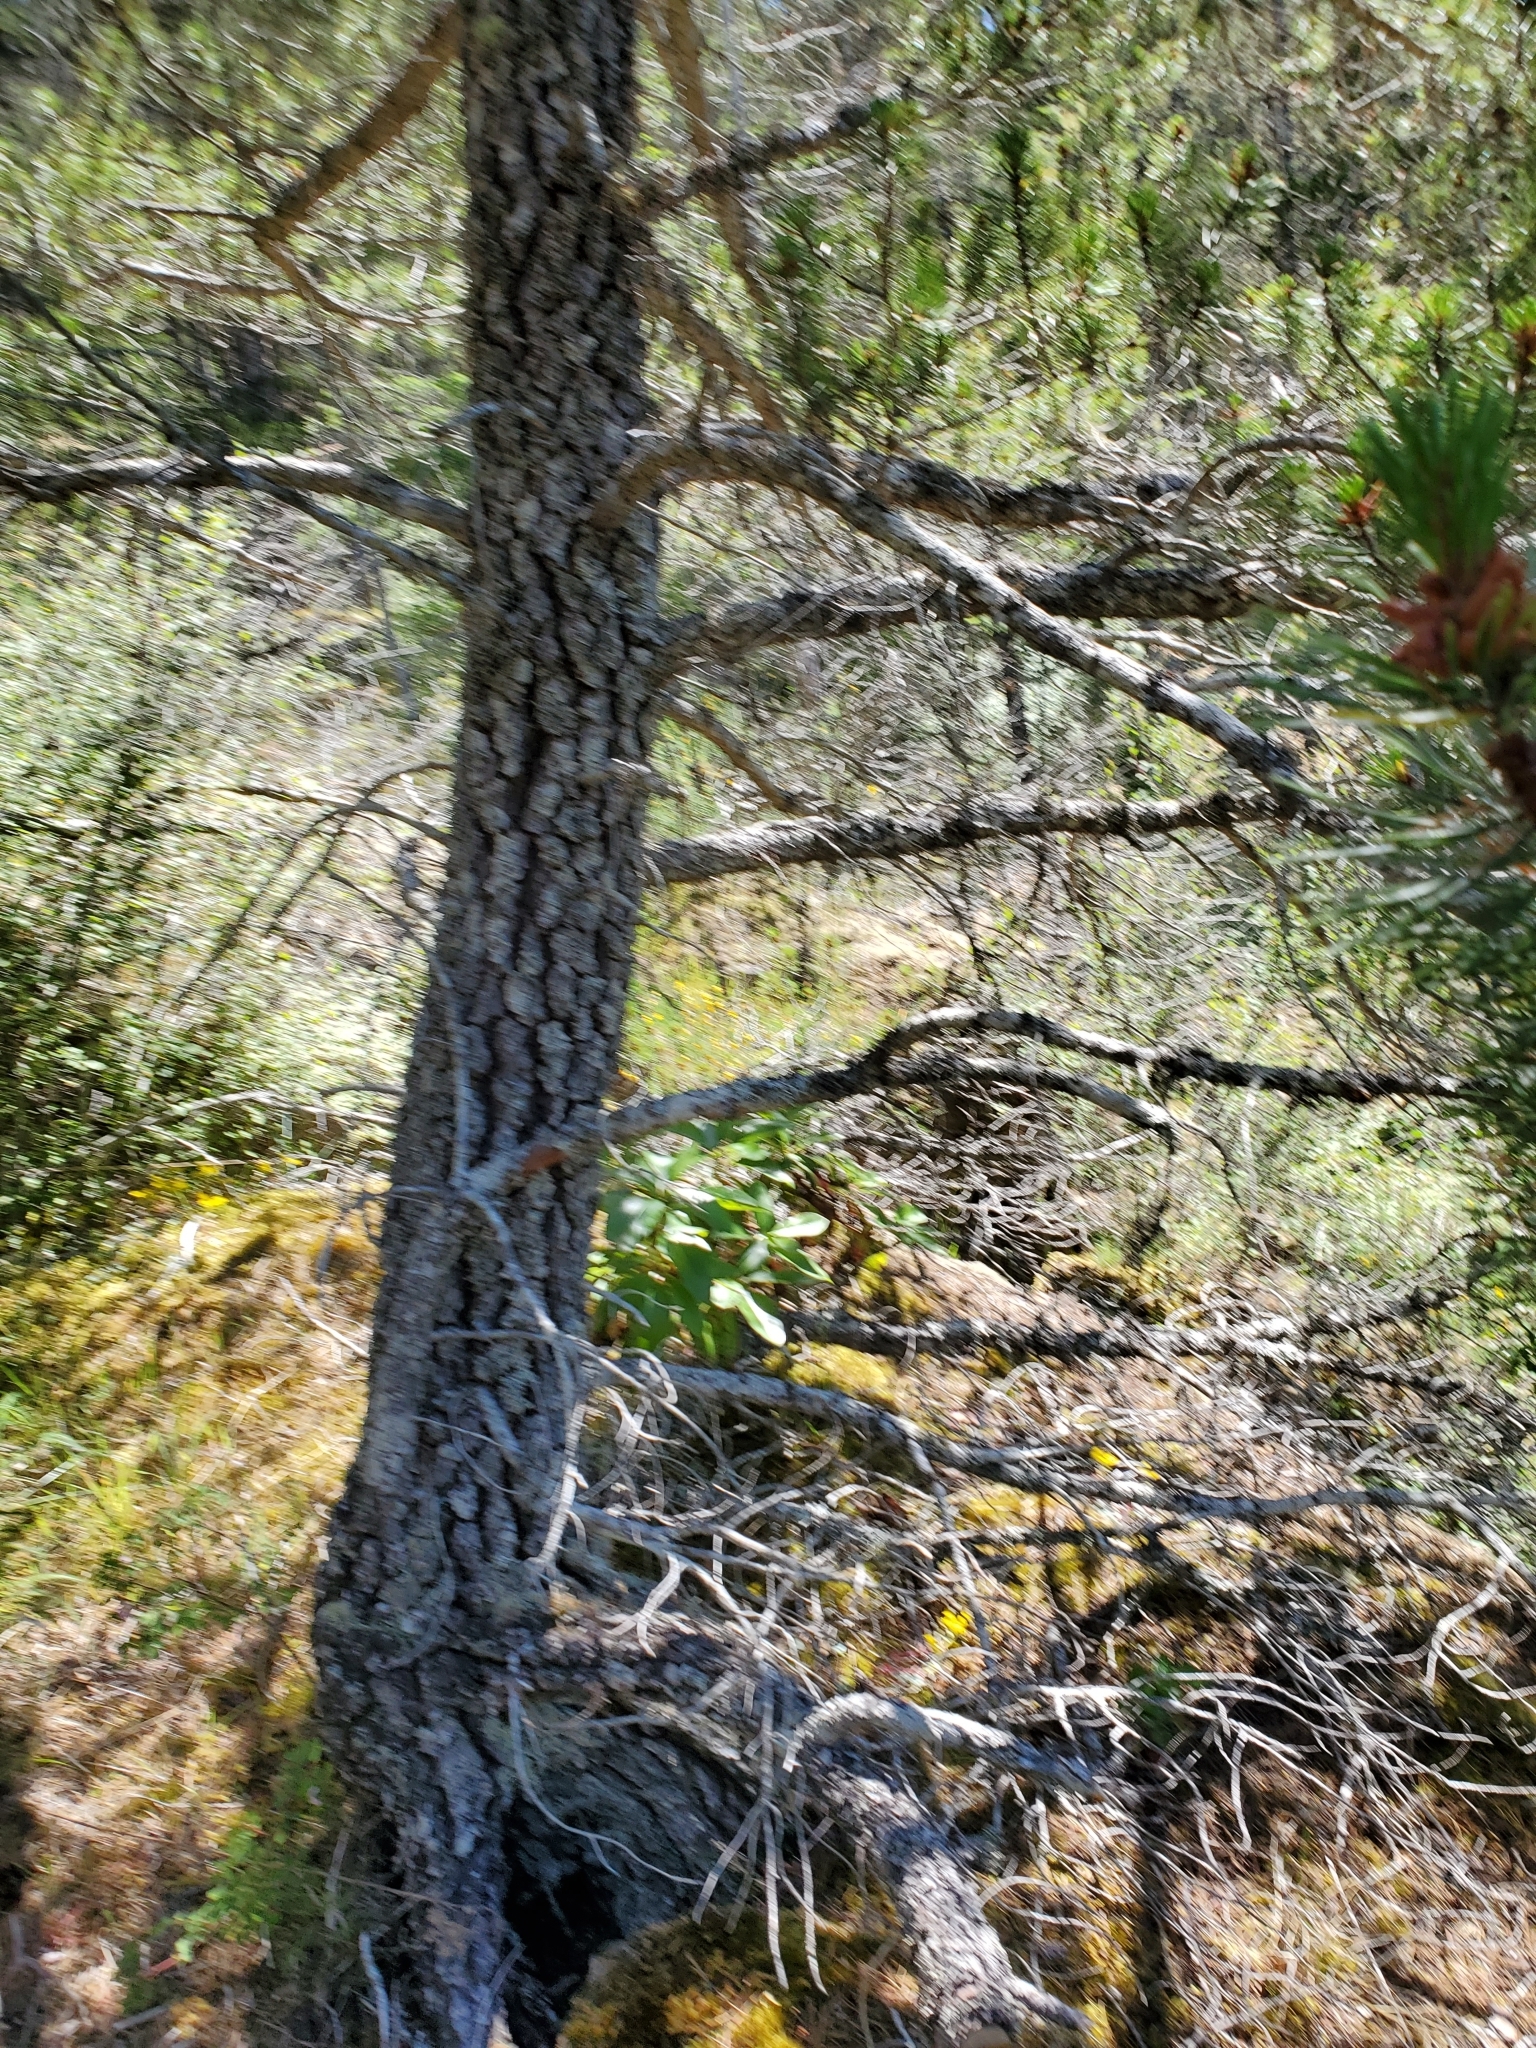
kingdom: Plantae
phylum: Tracheophyta
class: Pinopsida
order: Pinales
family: Pinaceae
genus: Pinus
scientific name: Pinus contorta
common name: Lodgepole pine
